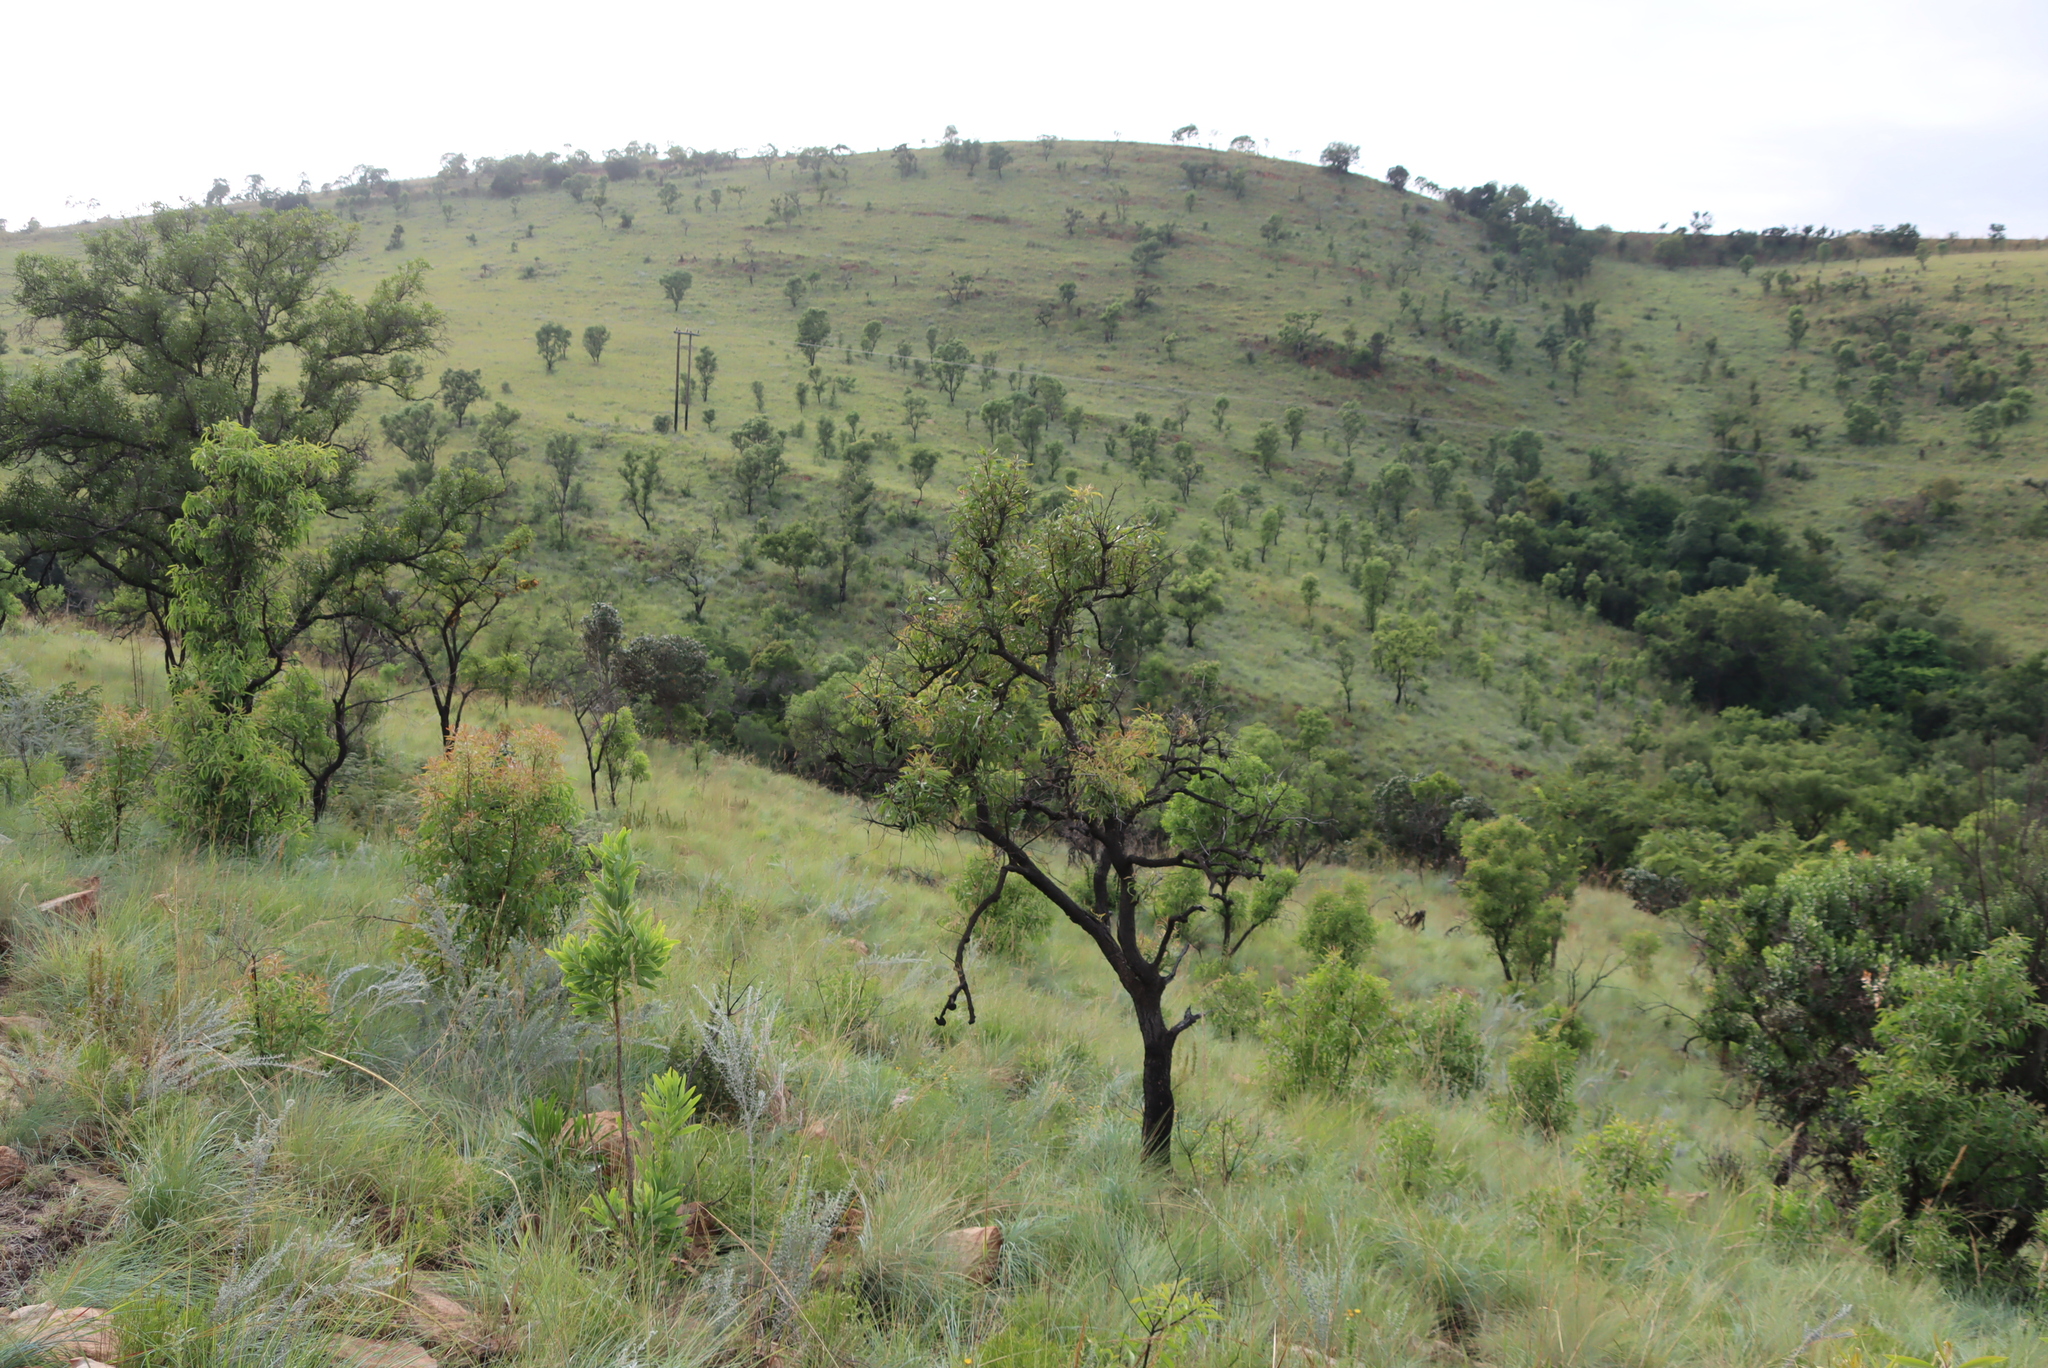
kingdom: Plantae
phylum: Tracheophyta
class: Magnoliopsida
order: Proteales
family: Proteaceae
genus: Faurea
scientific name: Faurea saligna
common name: African bean
